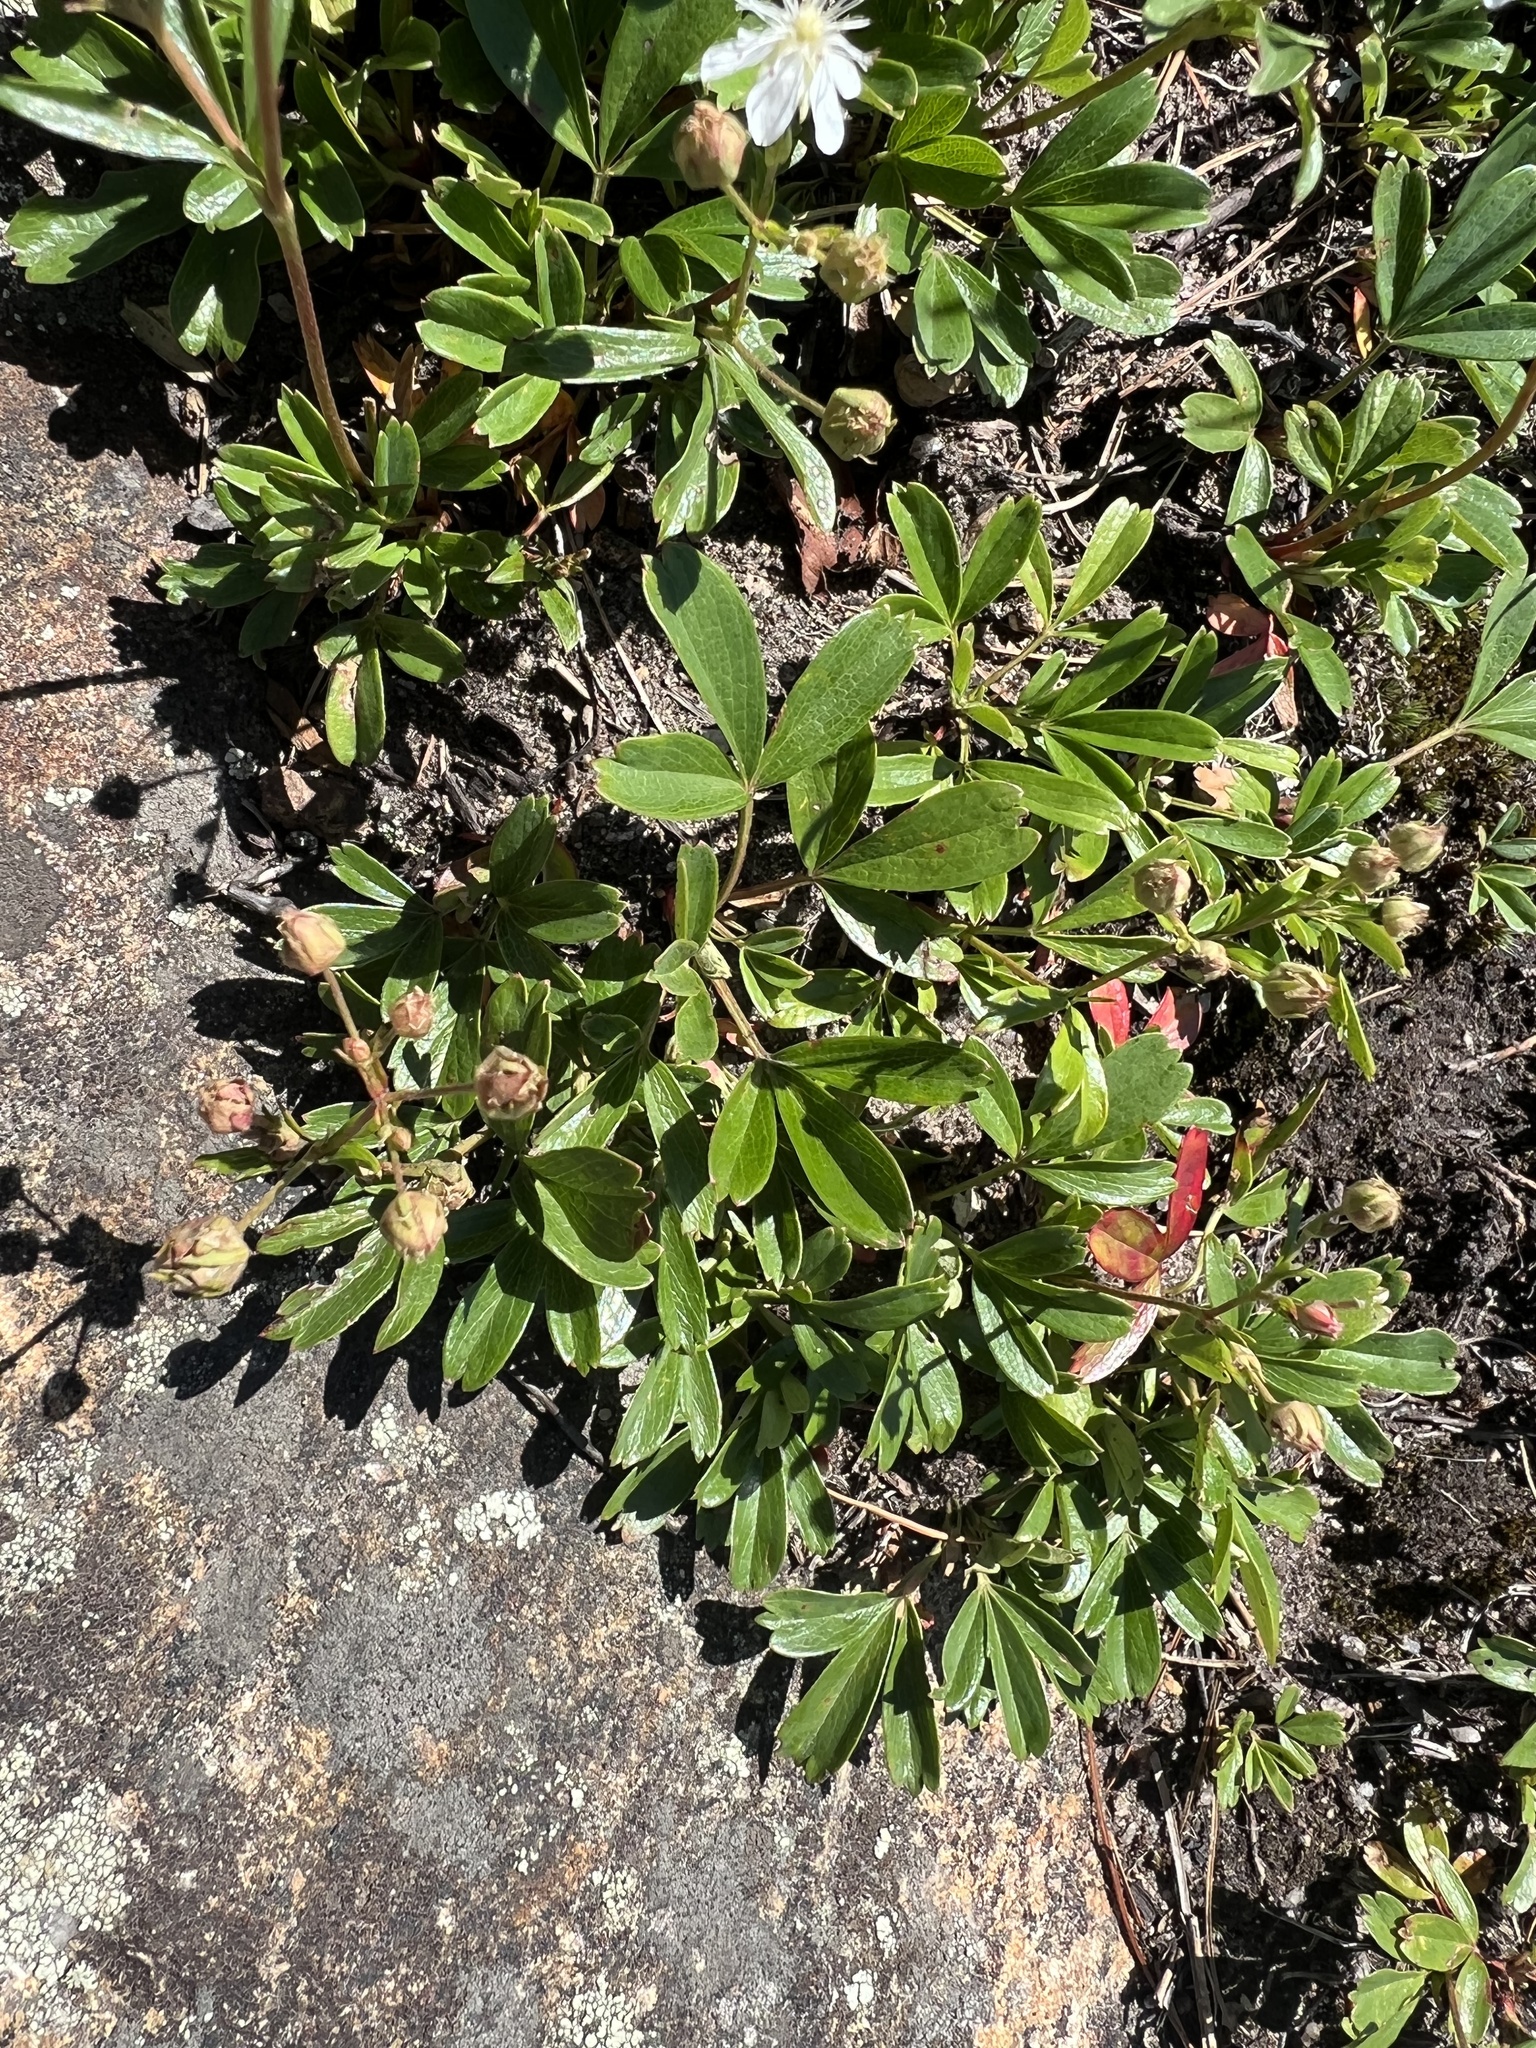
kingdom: Plantae
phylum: Tracheophyta
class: Magnoliopsida
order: Rosales
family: Rosaceae
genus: Sibbaldia
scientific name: Sibbaldia tridentata
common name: Three-toothed cinquefoil
